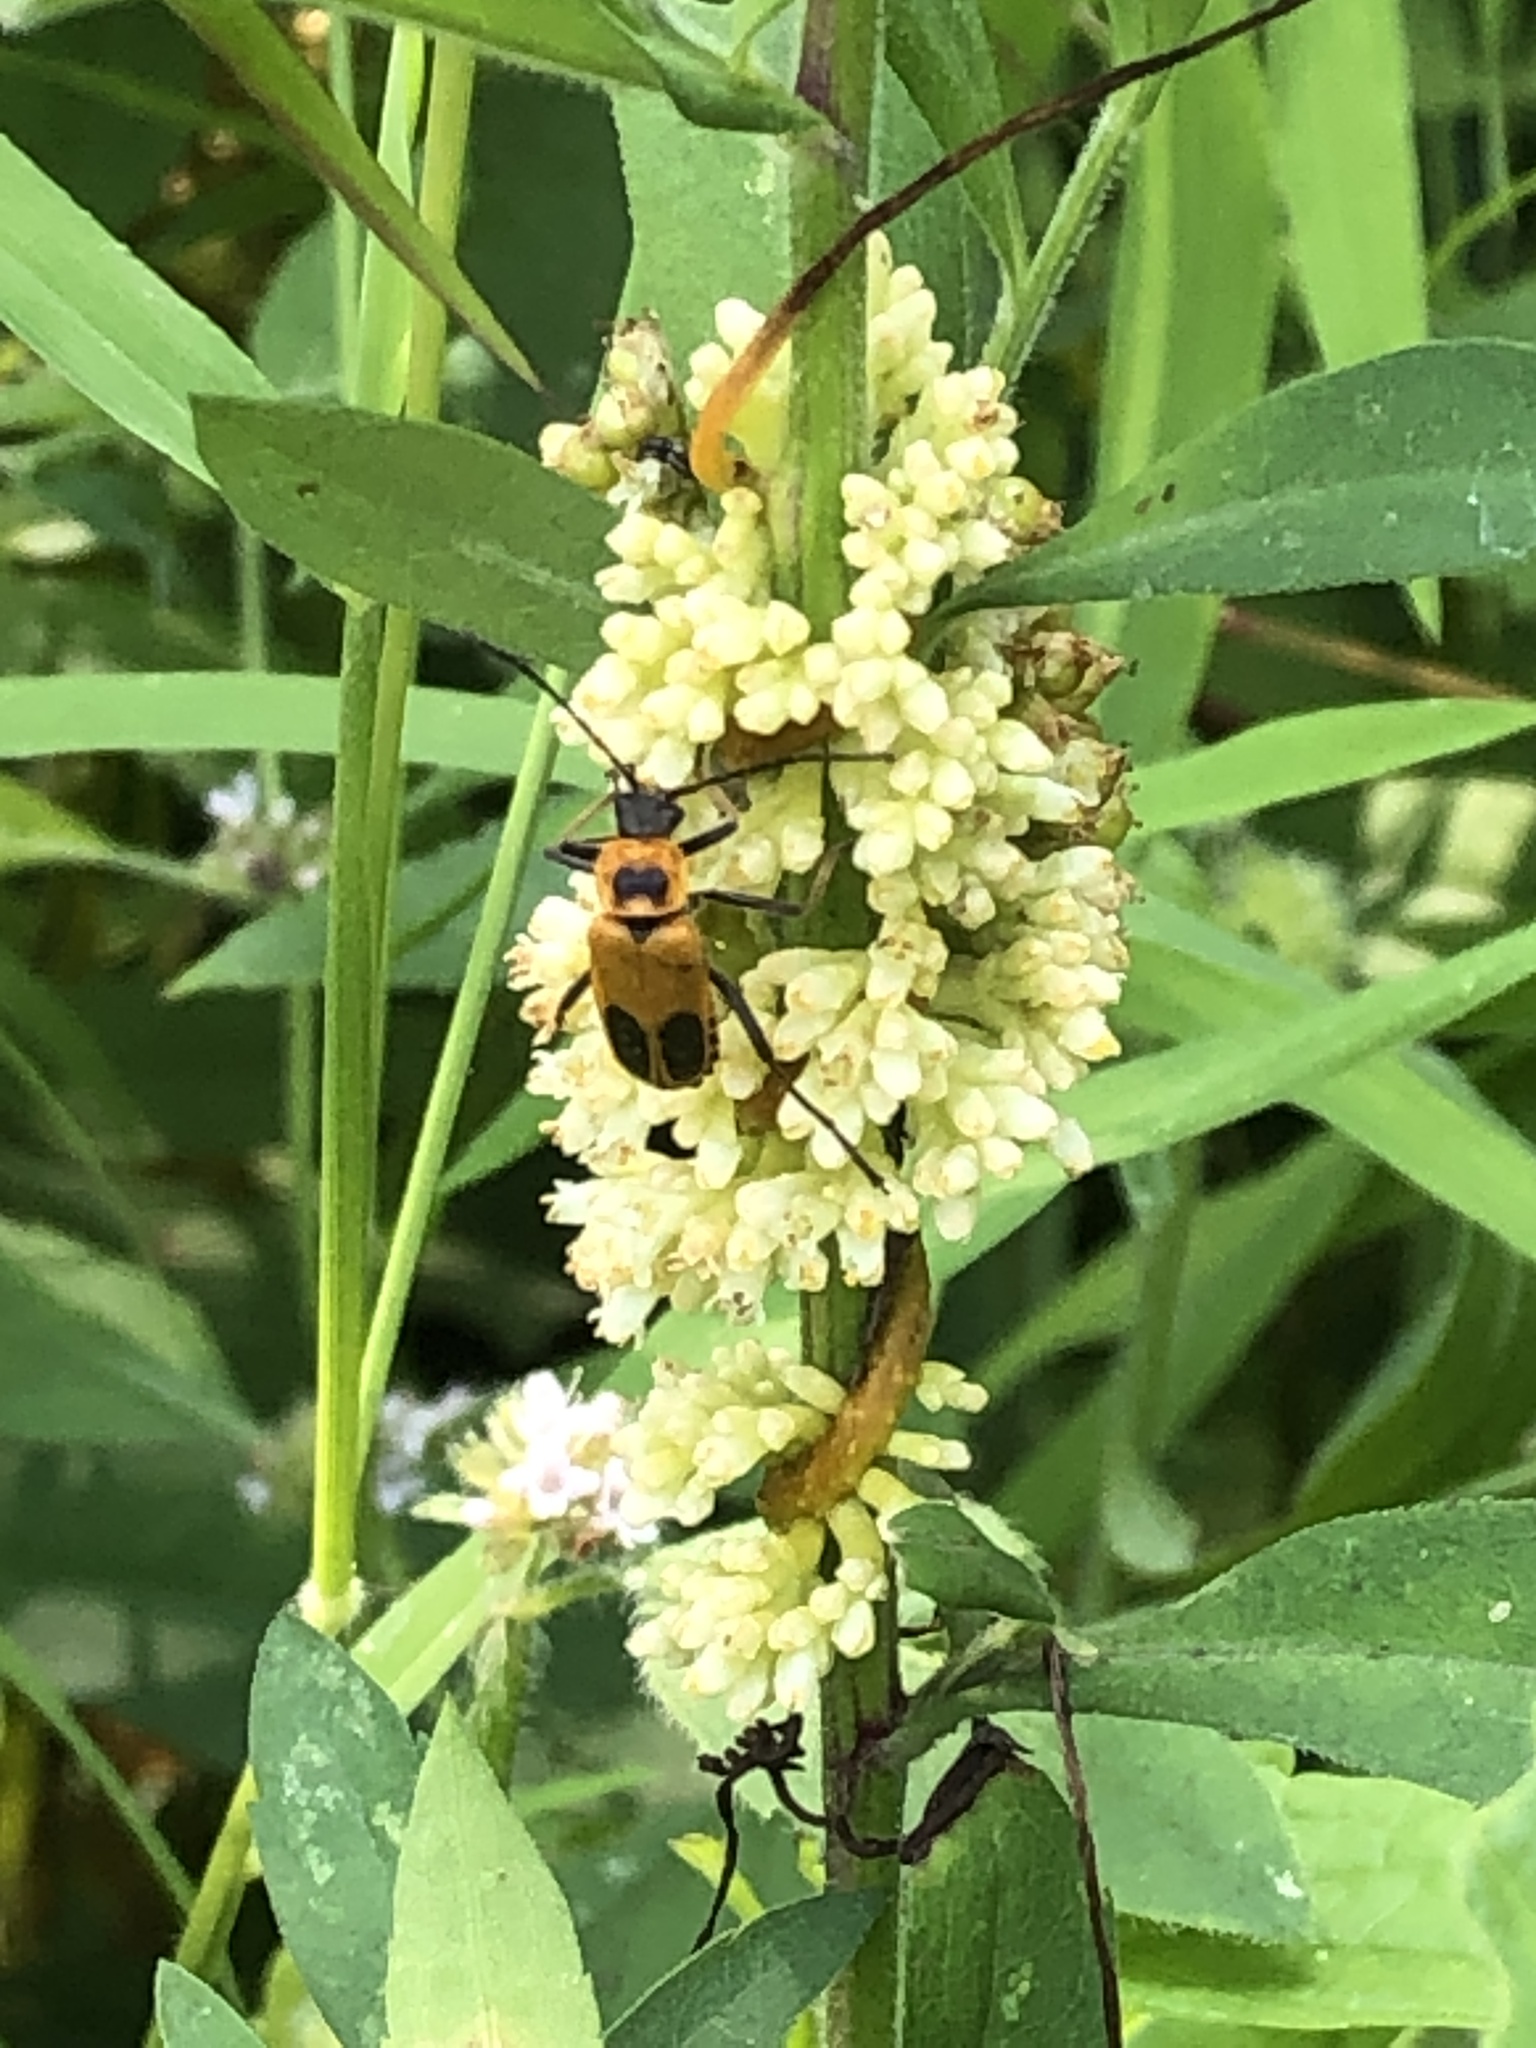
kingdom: Animalia
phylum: Arthropoda
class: Insecta
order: Coleoptera
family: Cantharidae
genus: Chauliognathus
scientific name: Chauliognathus pensylvanicus
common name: Goldenrod soldier beetle
